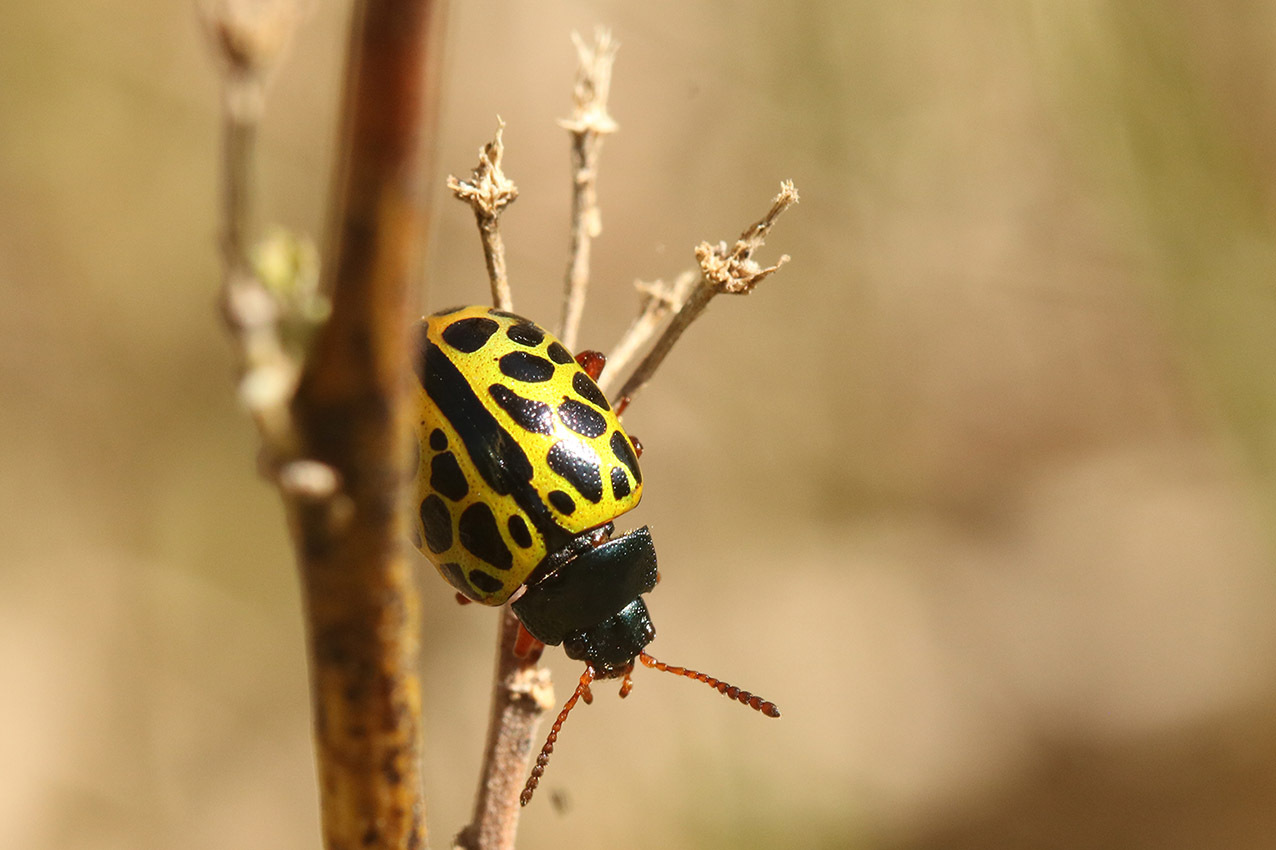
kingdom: Animalia
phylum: Arthropoda
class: Insecta
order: Coleoptera
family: Chrysomelidae
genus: Calligrapha
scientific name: Calligrapha polyspila
